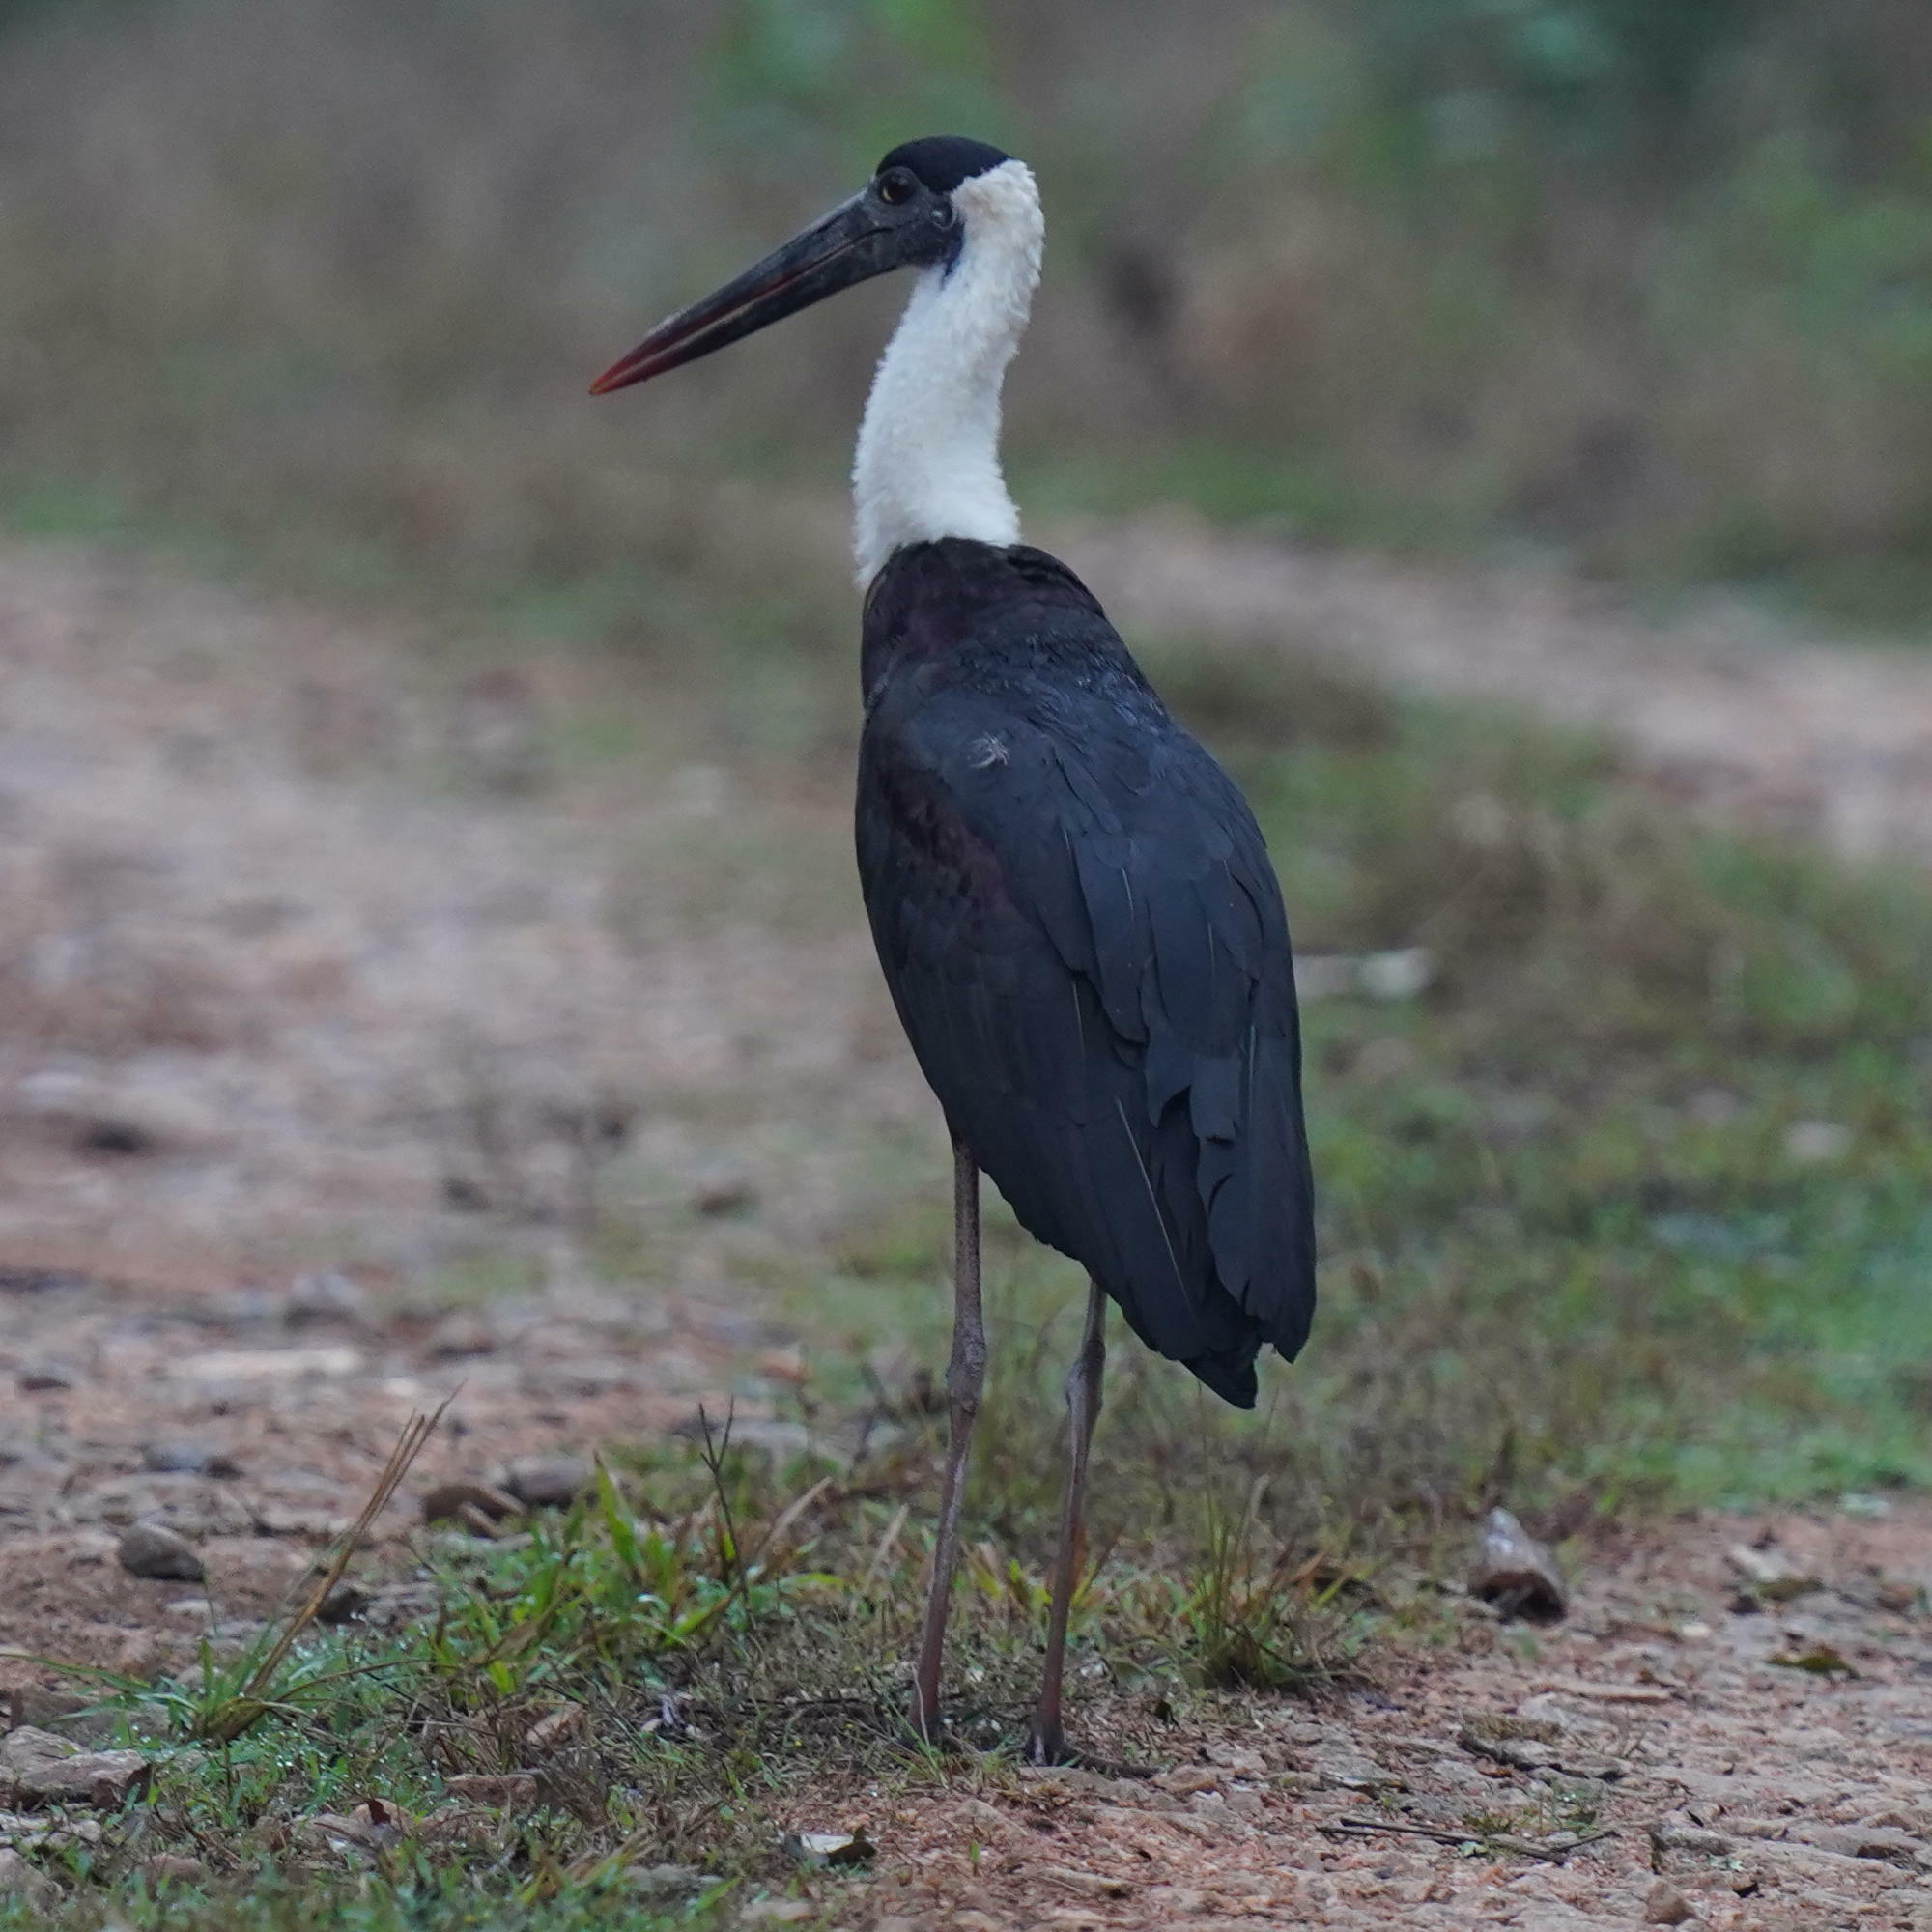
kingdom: Animalia
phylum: Chordata
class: Aves
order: Ciconiiformes
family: Ciconiidae
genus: Ciconia
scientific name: Ciconia episcopus
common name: Woolly-necked stork
